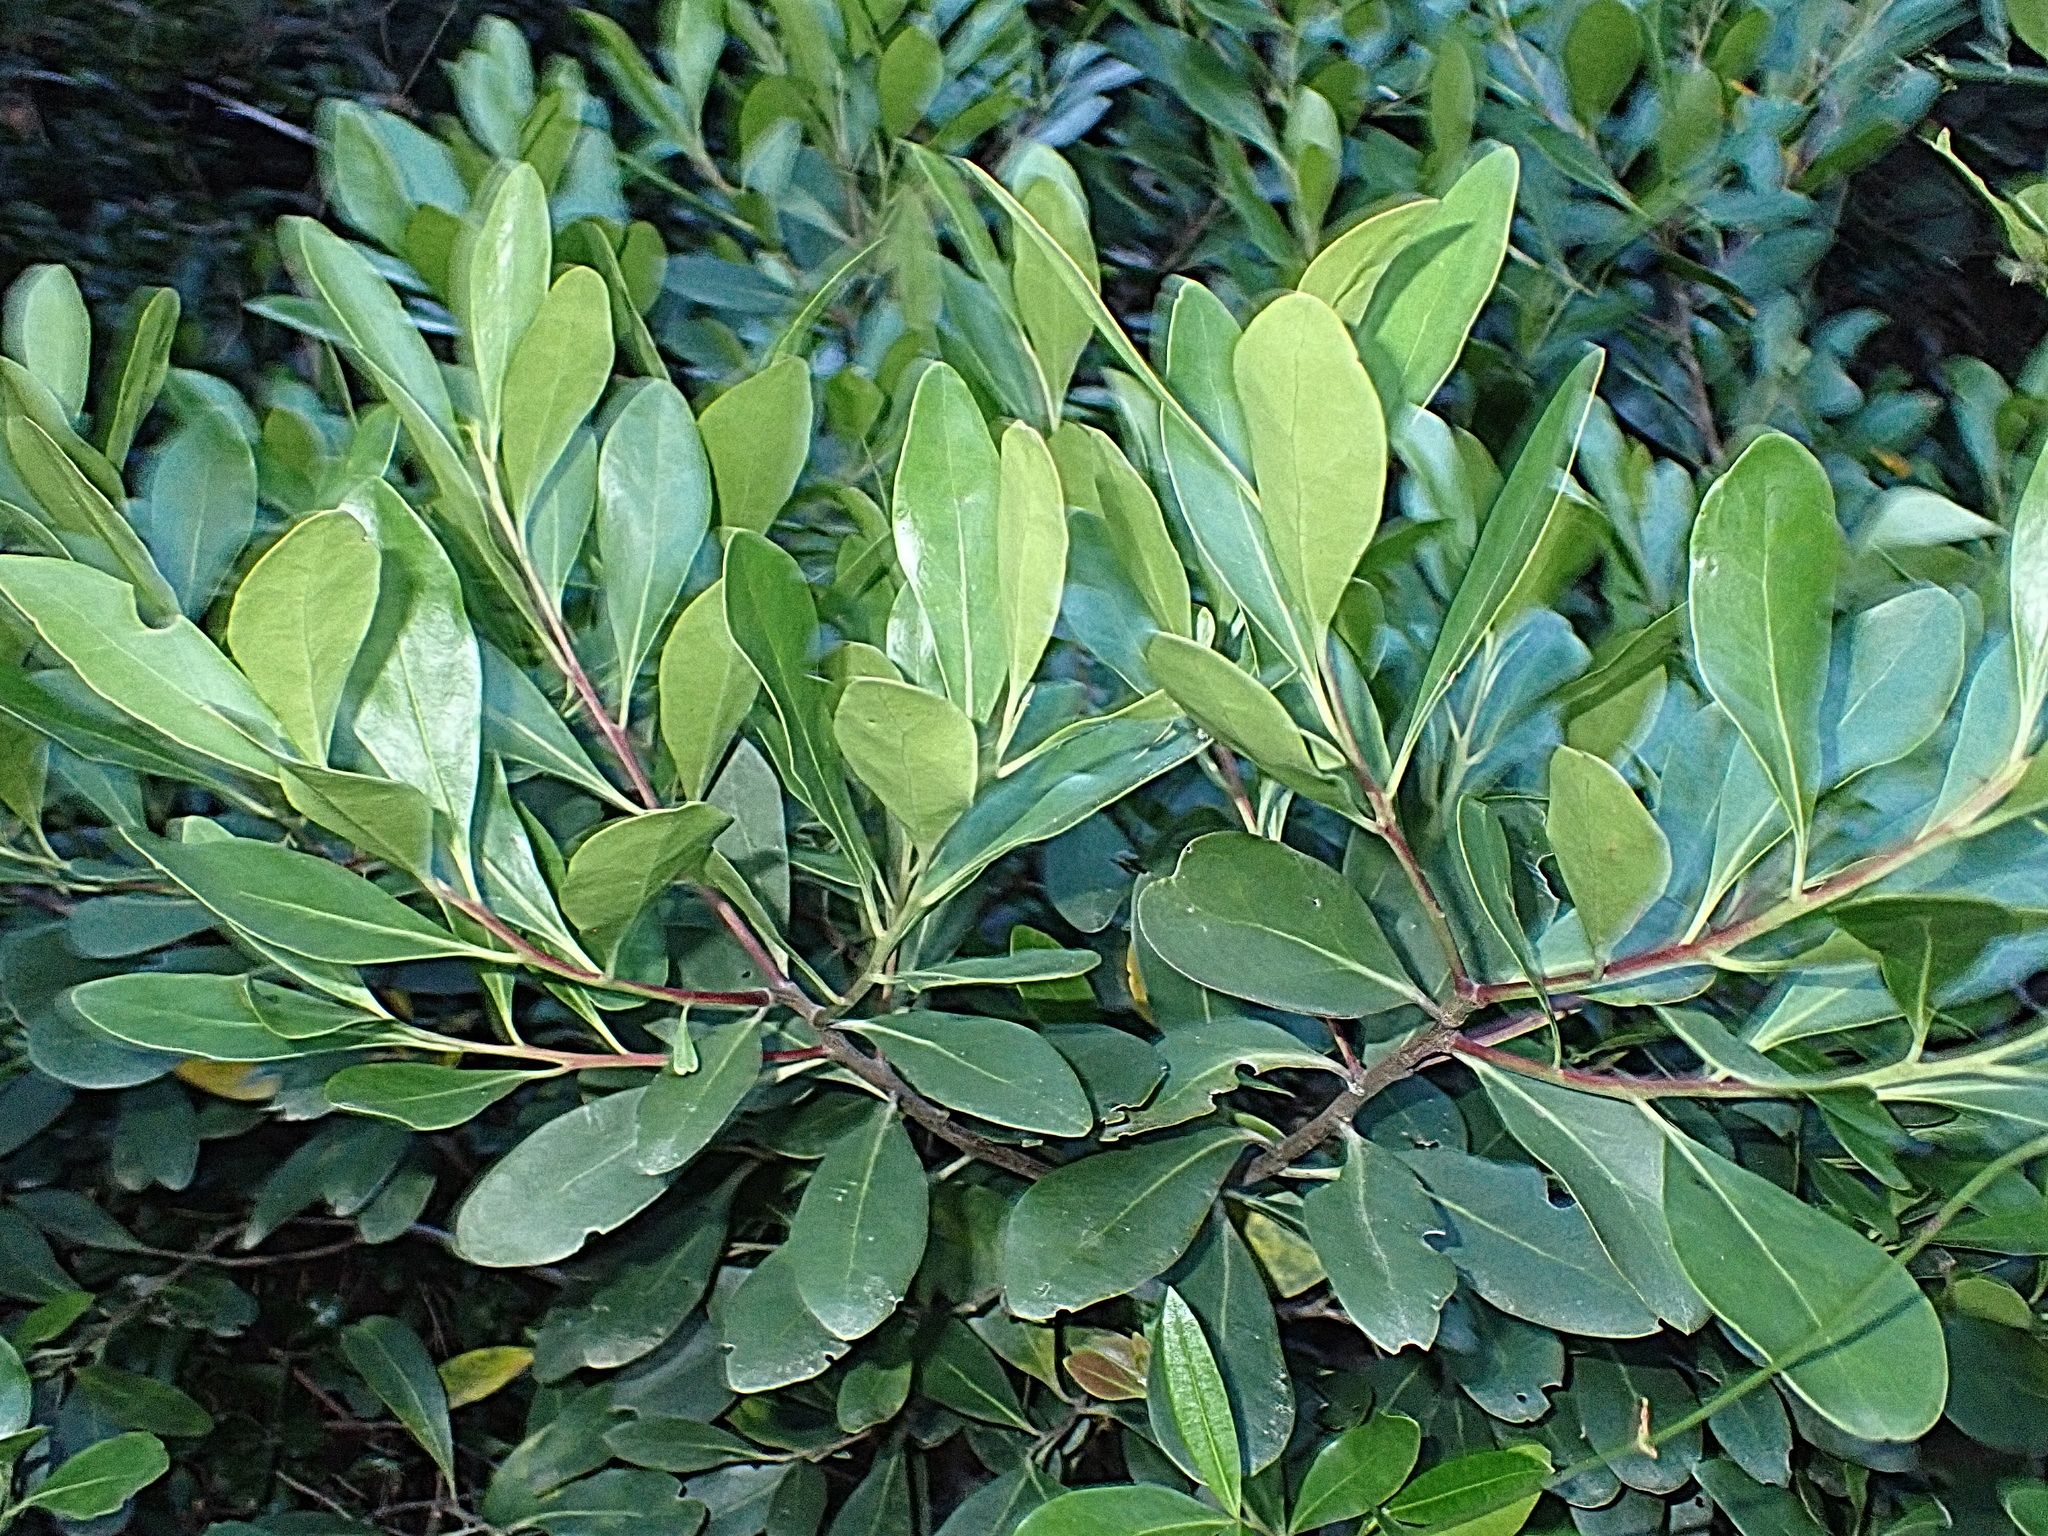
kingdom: Plantae
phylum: Tracheophyta
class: Magnoliopsida
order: Celastrales
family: Celastraceae
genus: Pterocelastrus
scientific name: Pterocelastrus tricuspidatus
